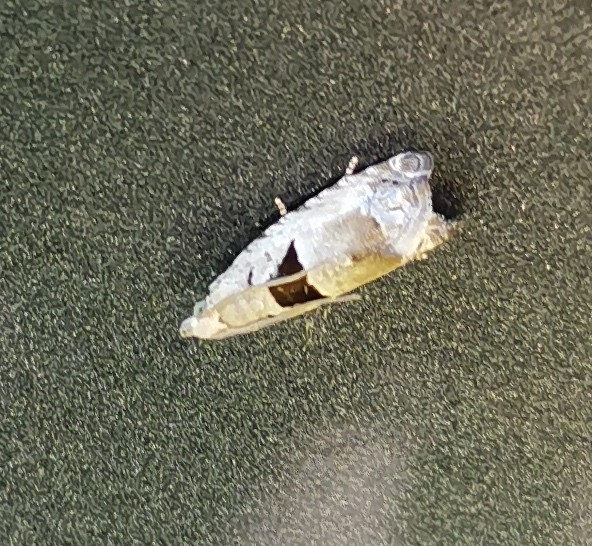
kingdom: Animalia
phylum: Arthropoda
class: Insecta
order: Lepidoptera
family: Tortricidae
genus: Epinotia
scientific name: Epinotia ramella
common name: Small birch bell
